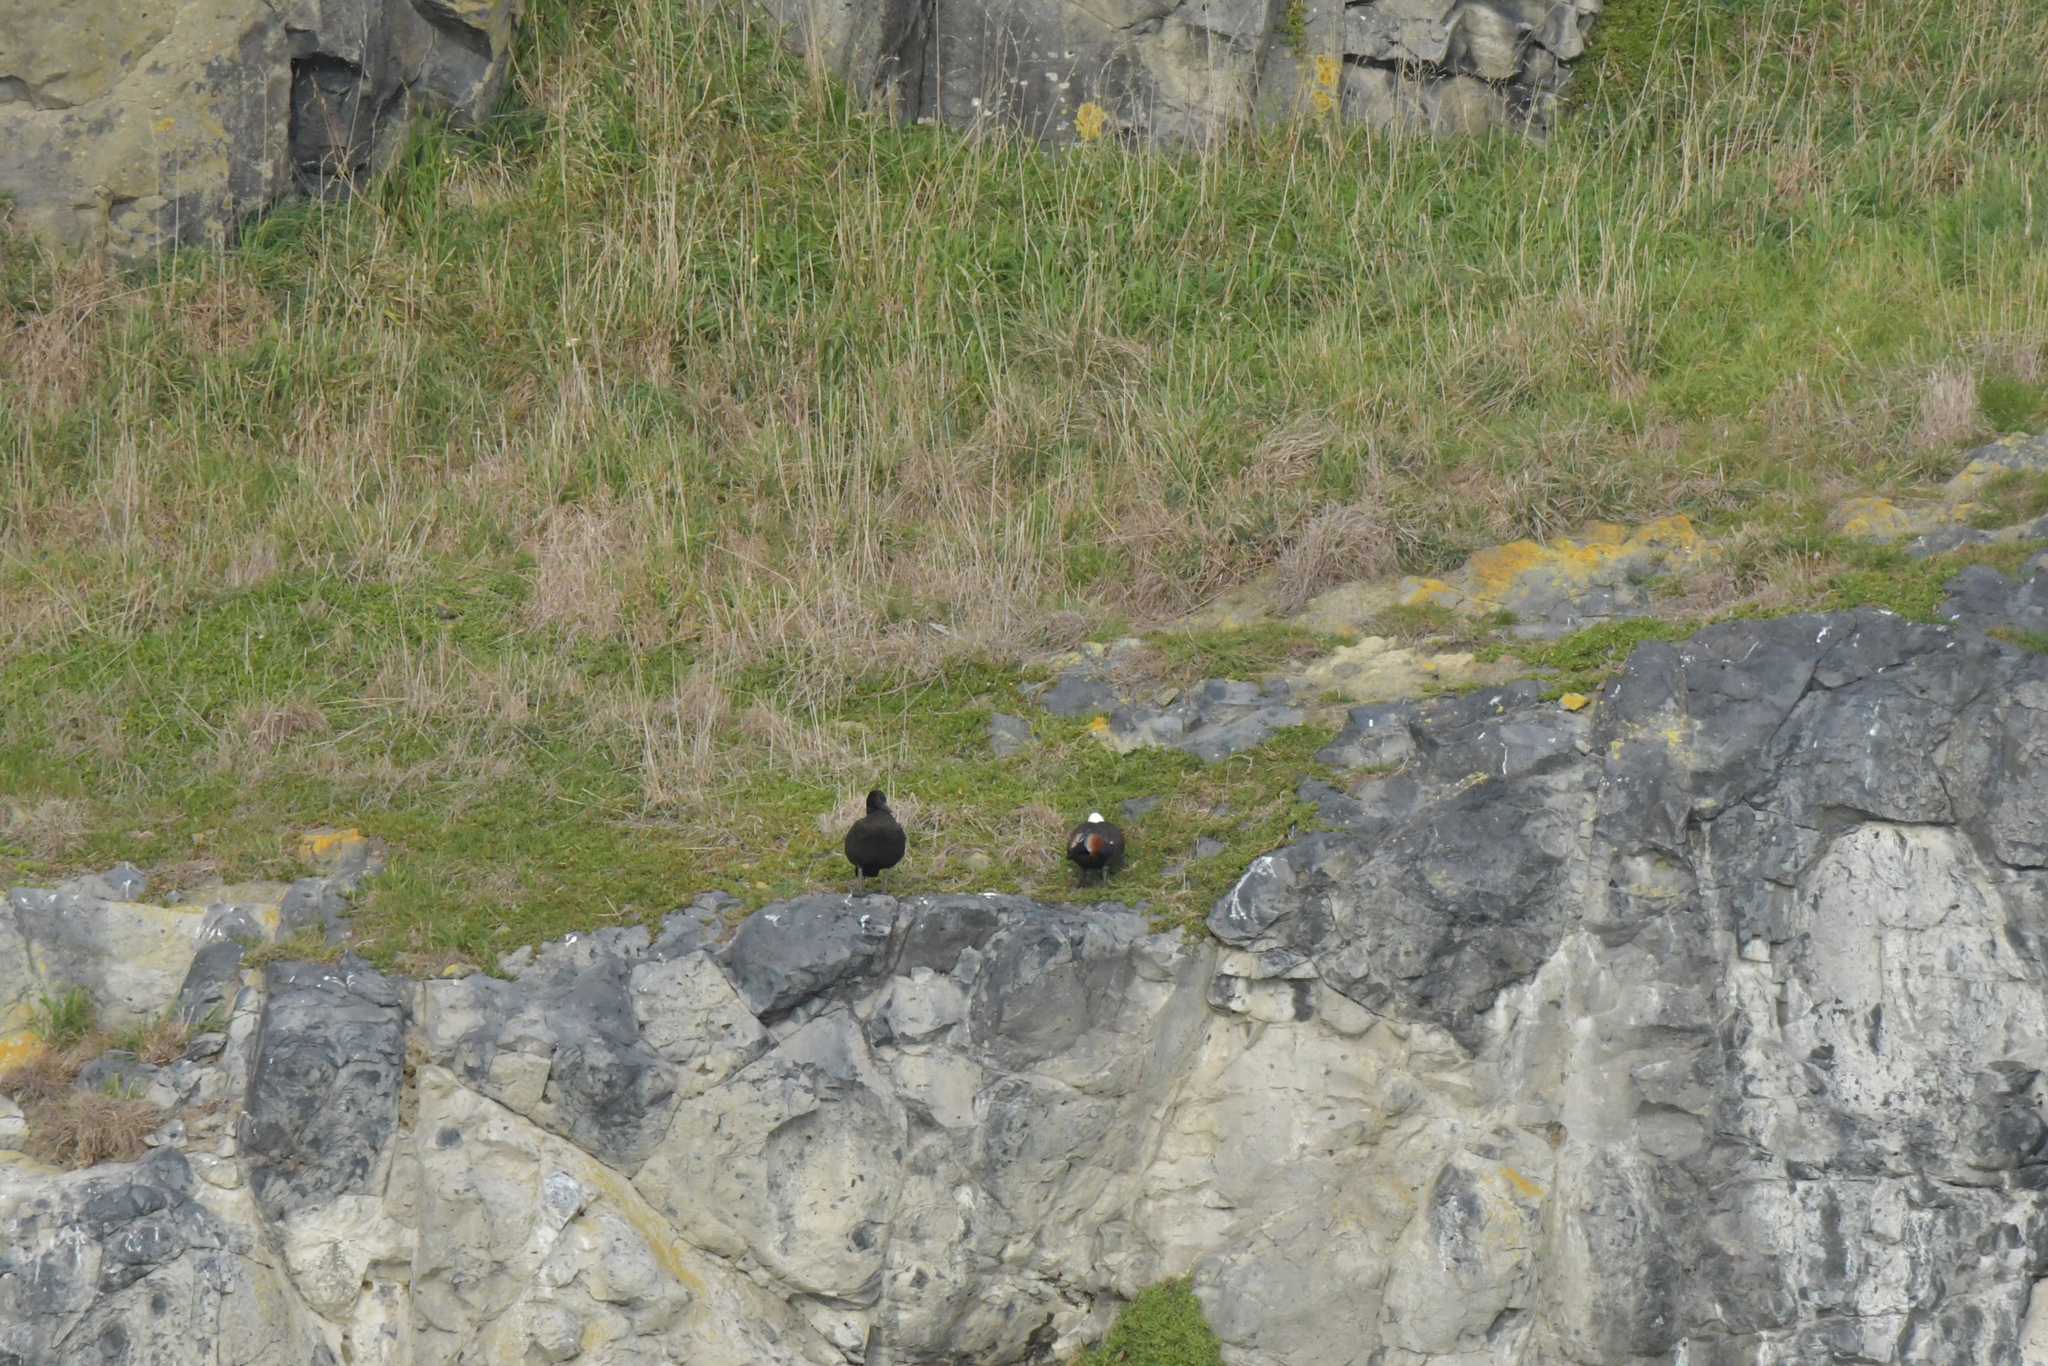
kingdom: Animalia
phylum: Chordata
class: Aves
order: Anseriformes
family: Anatidae
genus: Tadorna
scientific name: Tadorna variegata
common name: Paradise shelduck
